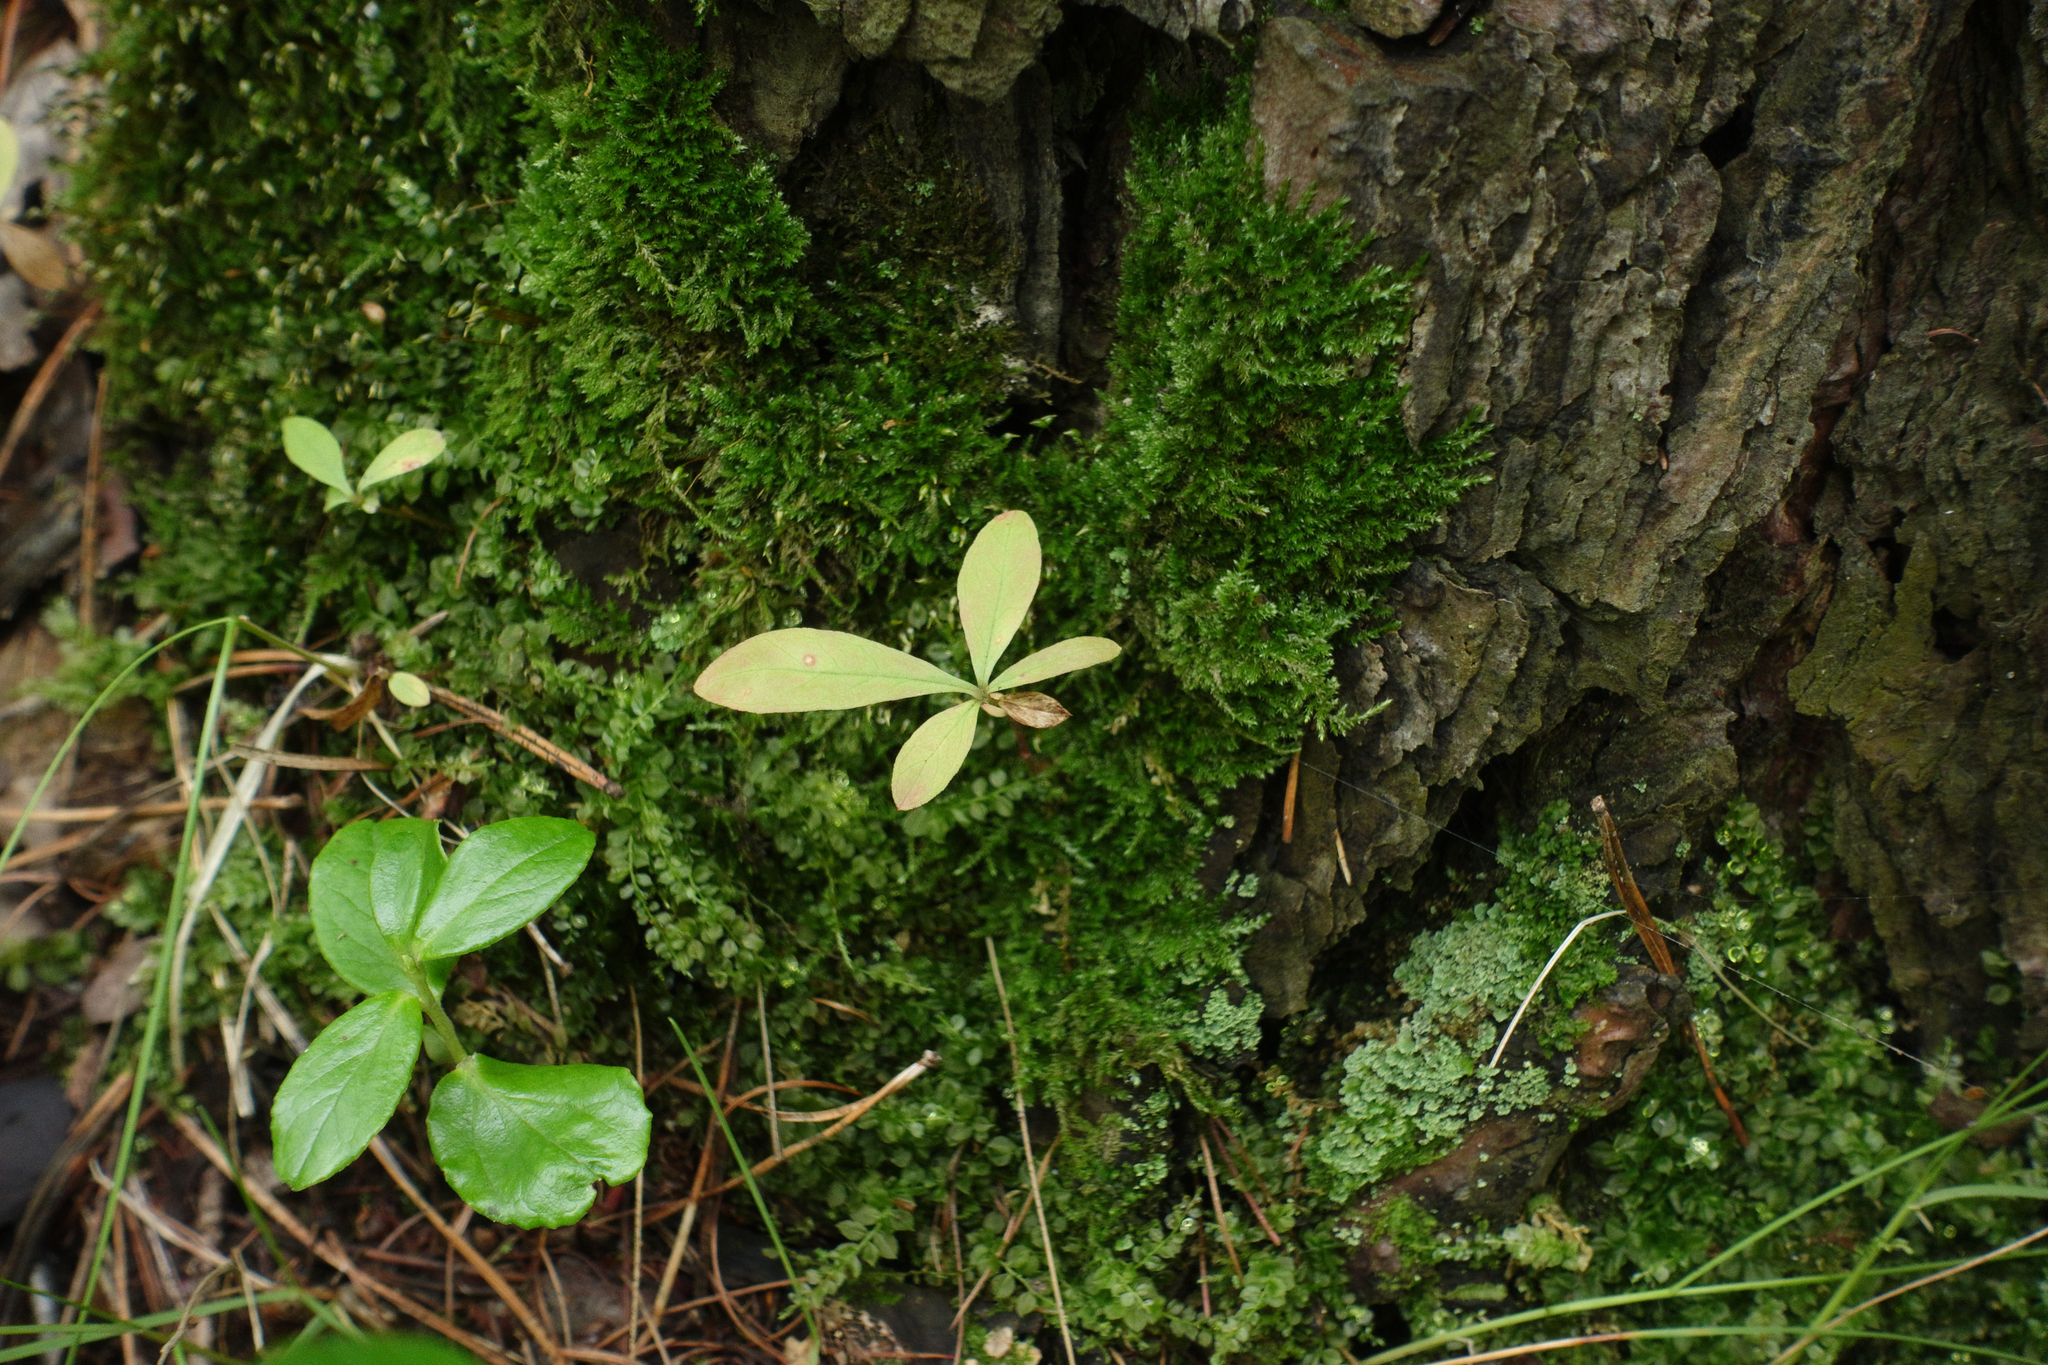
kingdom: Plantae
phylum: Tracheophyta
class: Magnoliopsida
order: Ericales
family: Primulaceae
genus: Lysimachia
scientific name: Lysimachia europaea
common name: Arctic starflower
